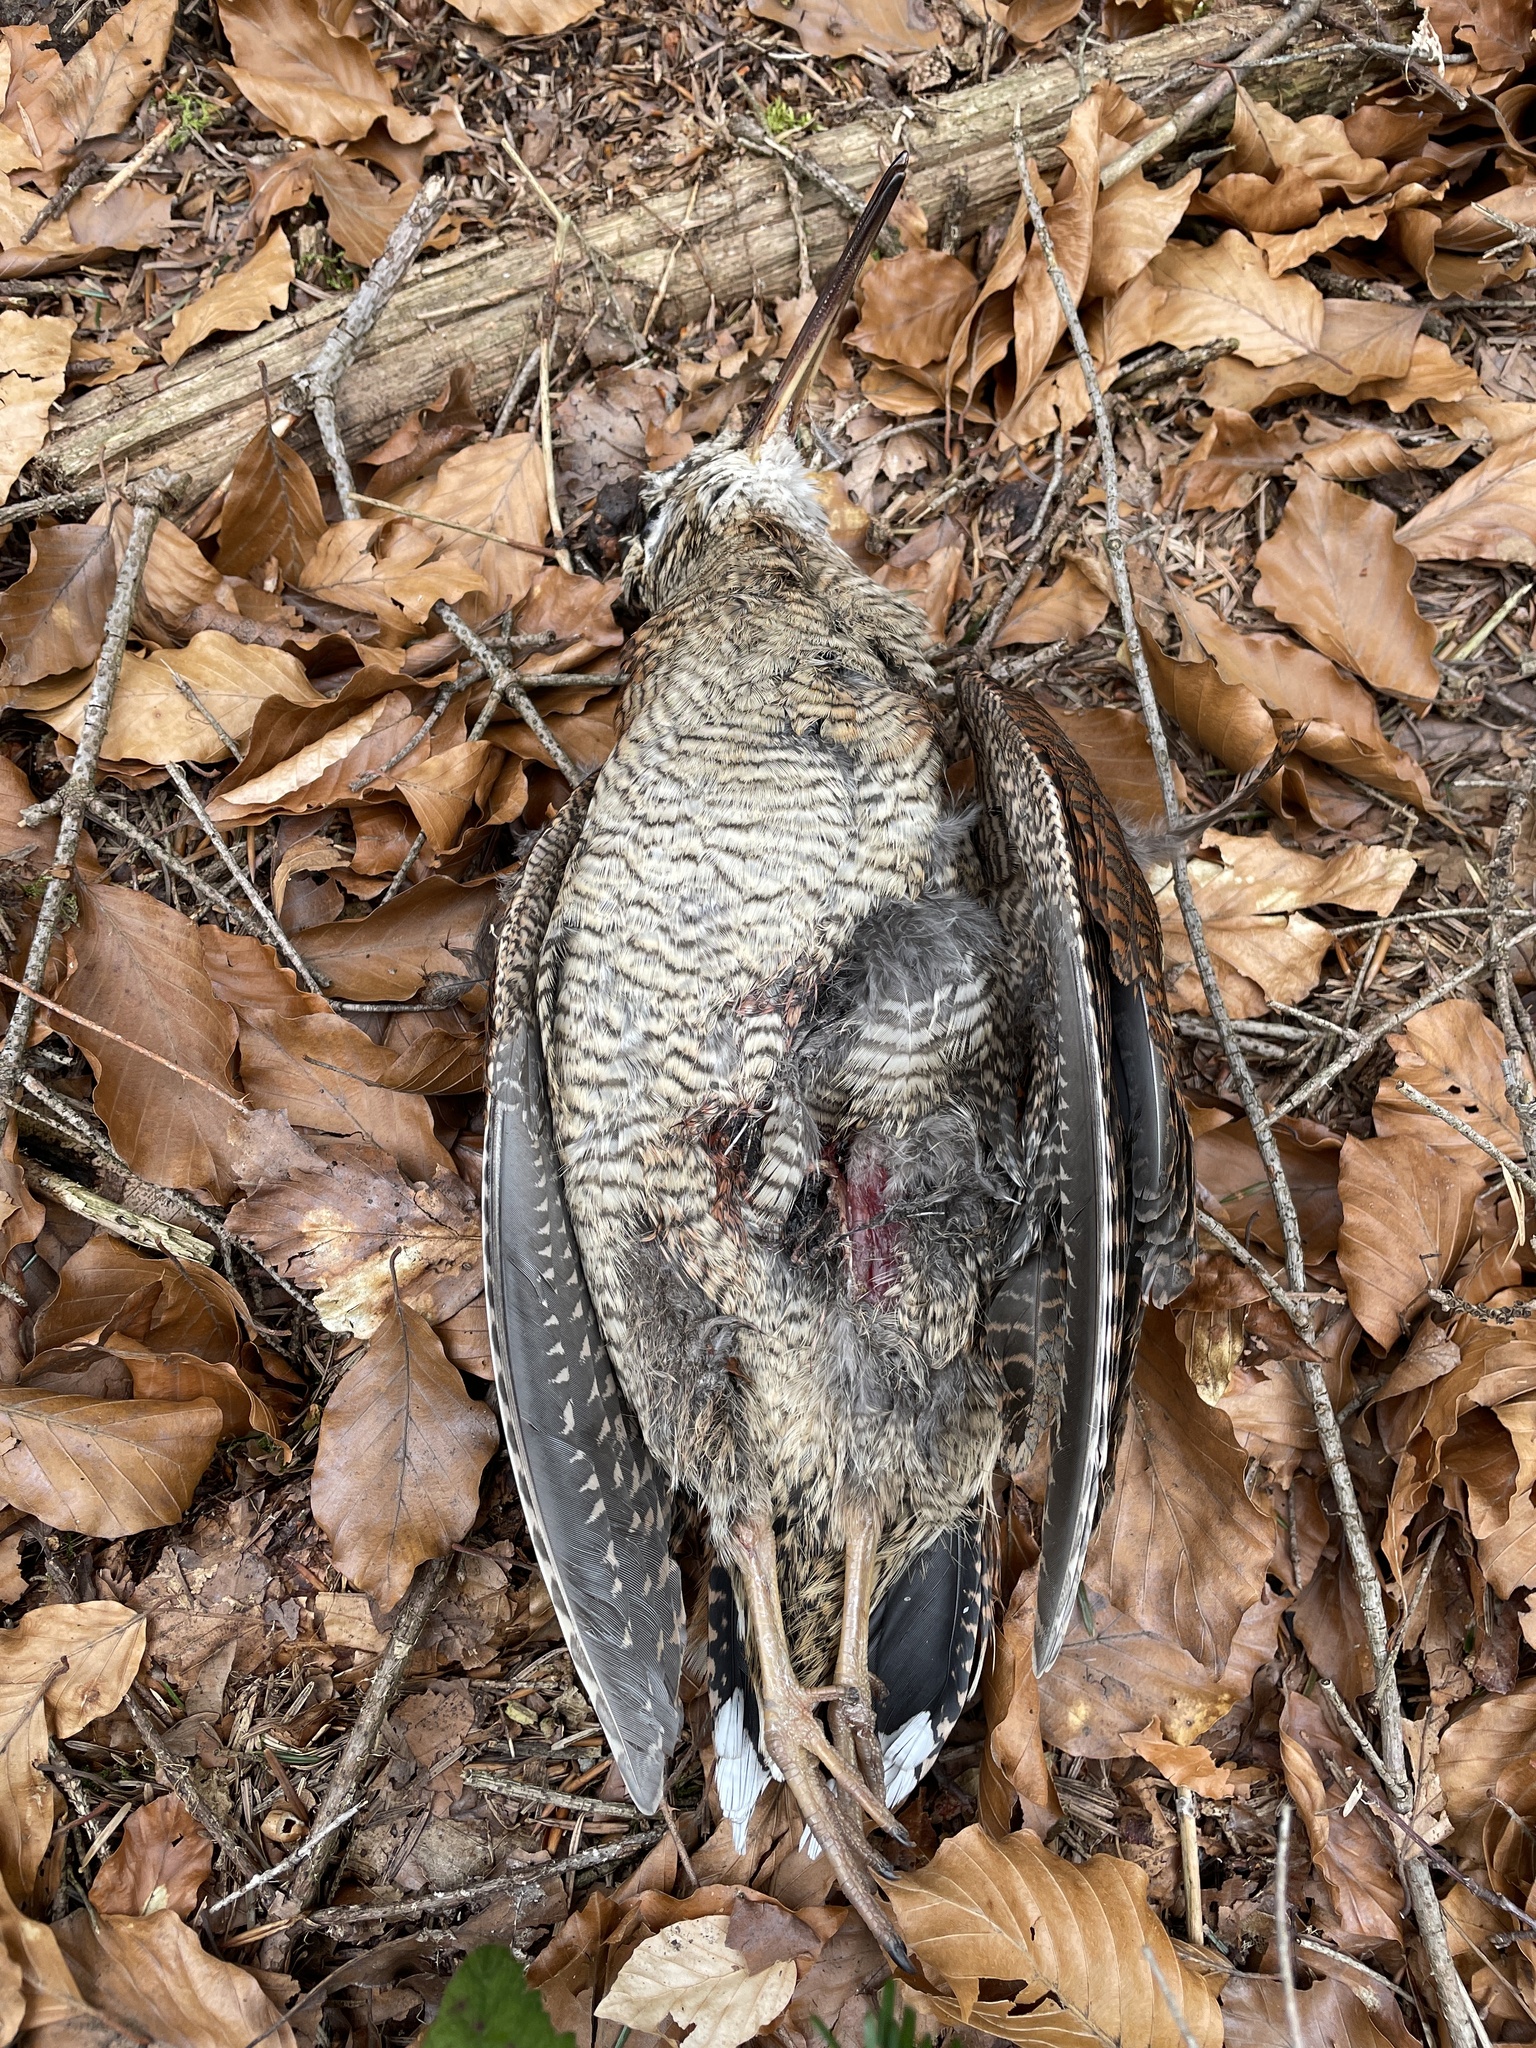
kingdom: Animalia
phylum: Chordata
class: Aves
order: Charadriiformes
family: Scolopacidae
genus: Scolopax
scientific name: Scolopax rusticola
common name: Eurasian woodcock
